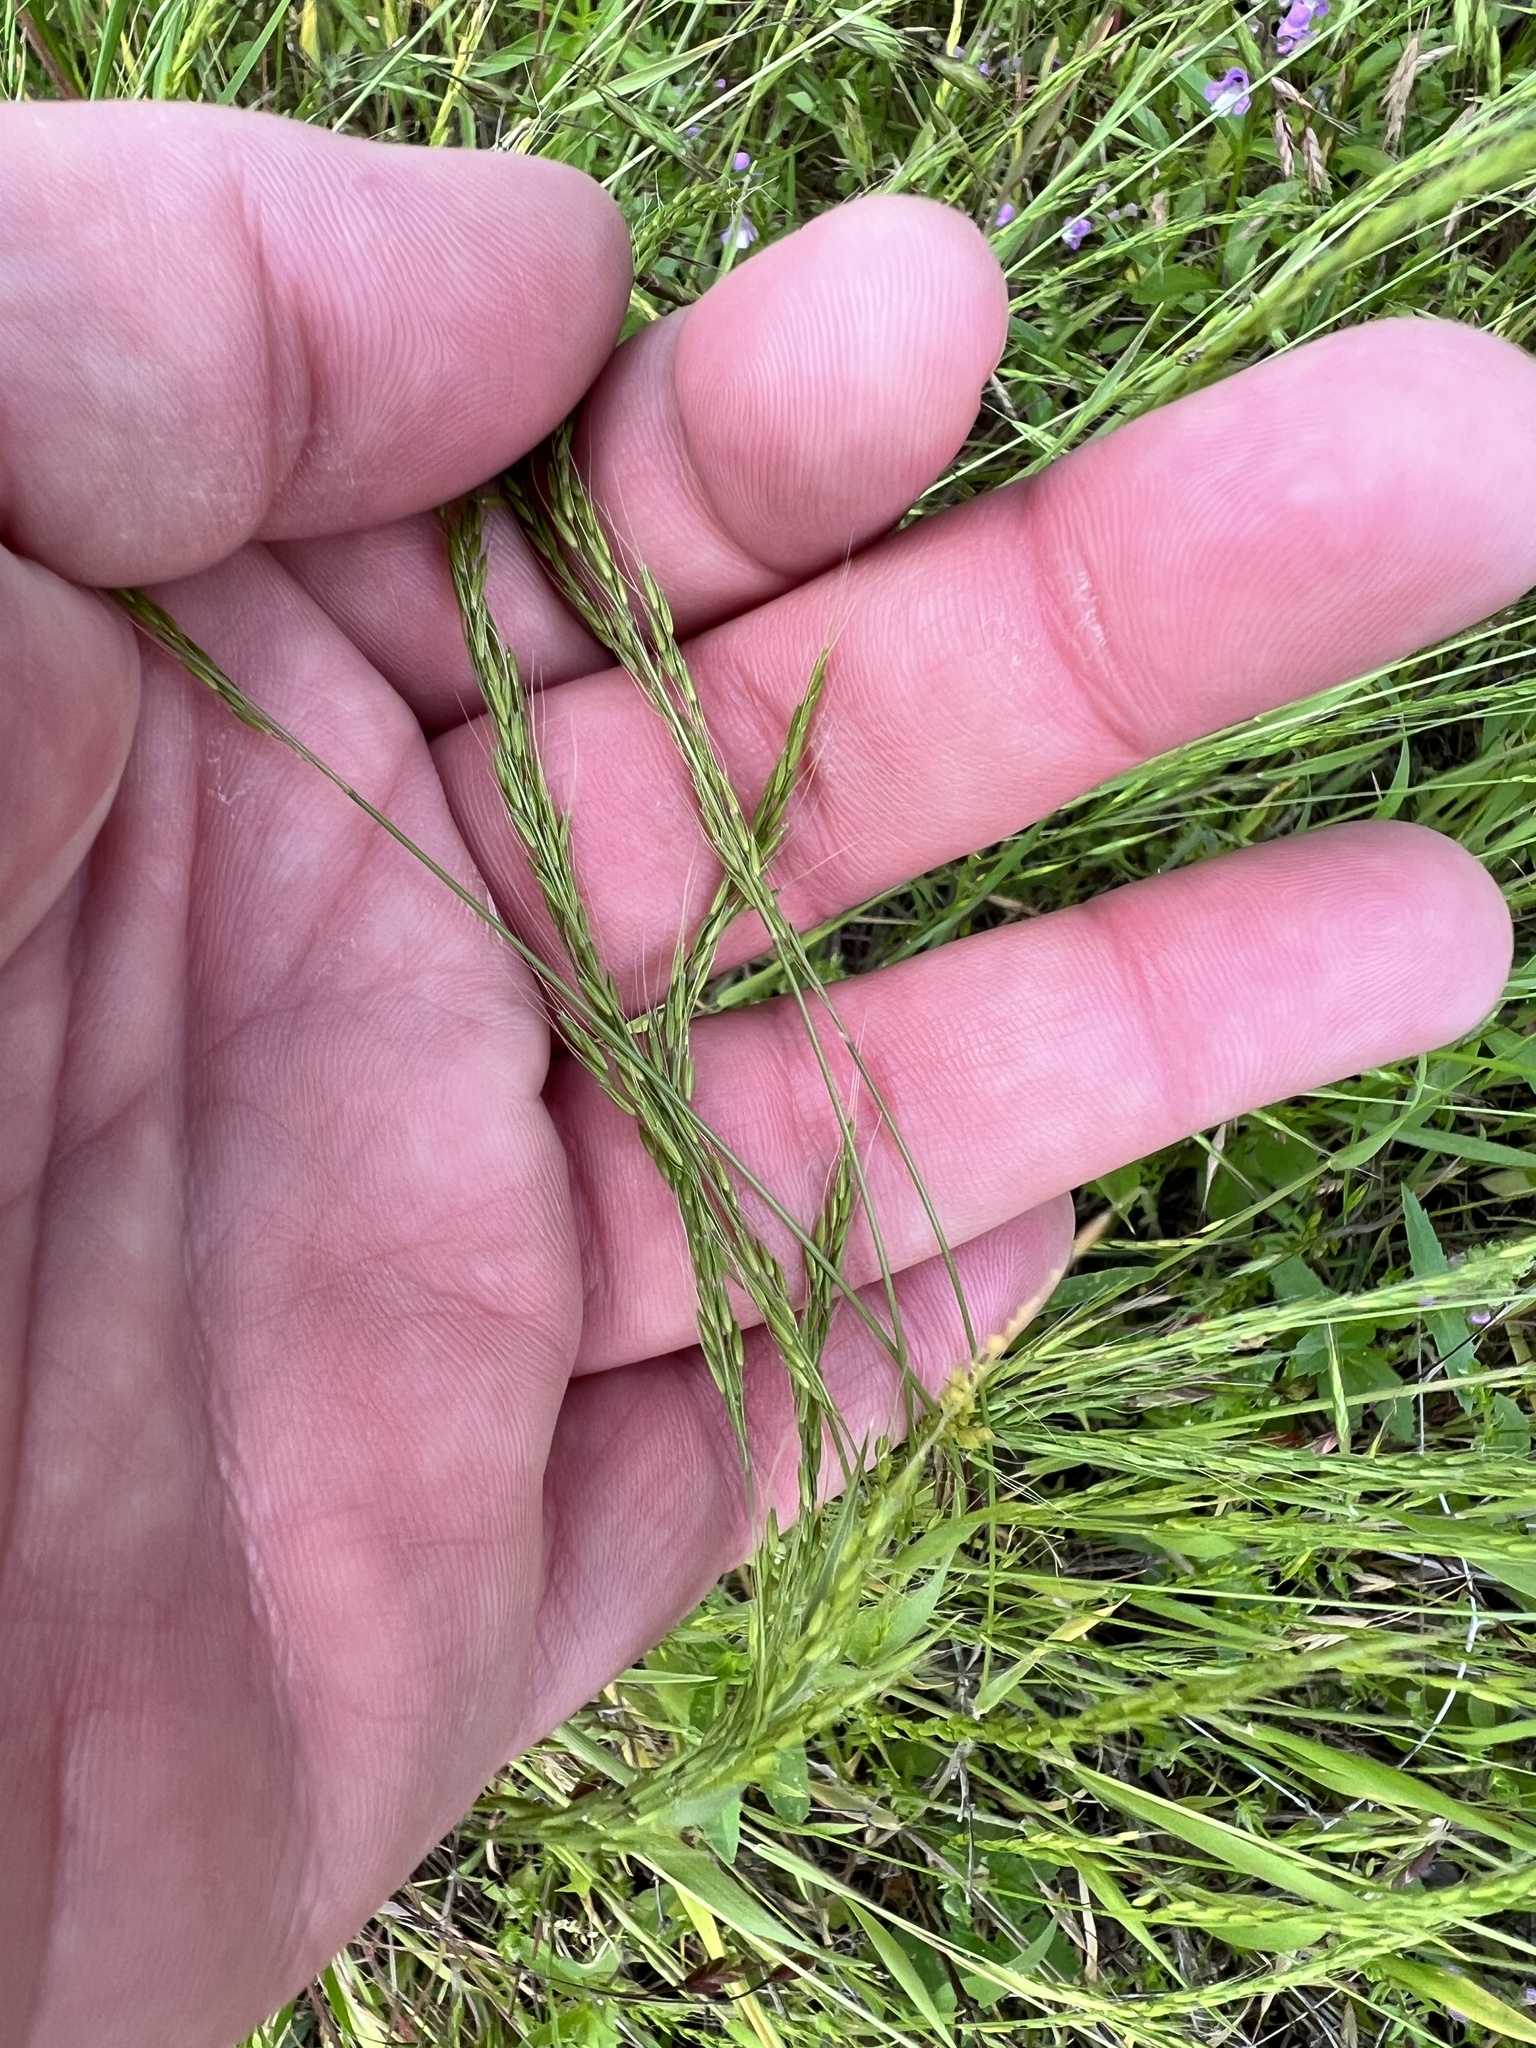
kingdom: Plantae
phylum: Tracheophyta
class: Liliopsida
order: Poales
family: Poaceae
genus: Limnodea
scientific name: Limnodea arkansana
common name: Ozark-grass
